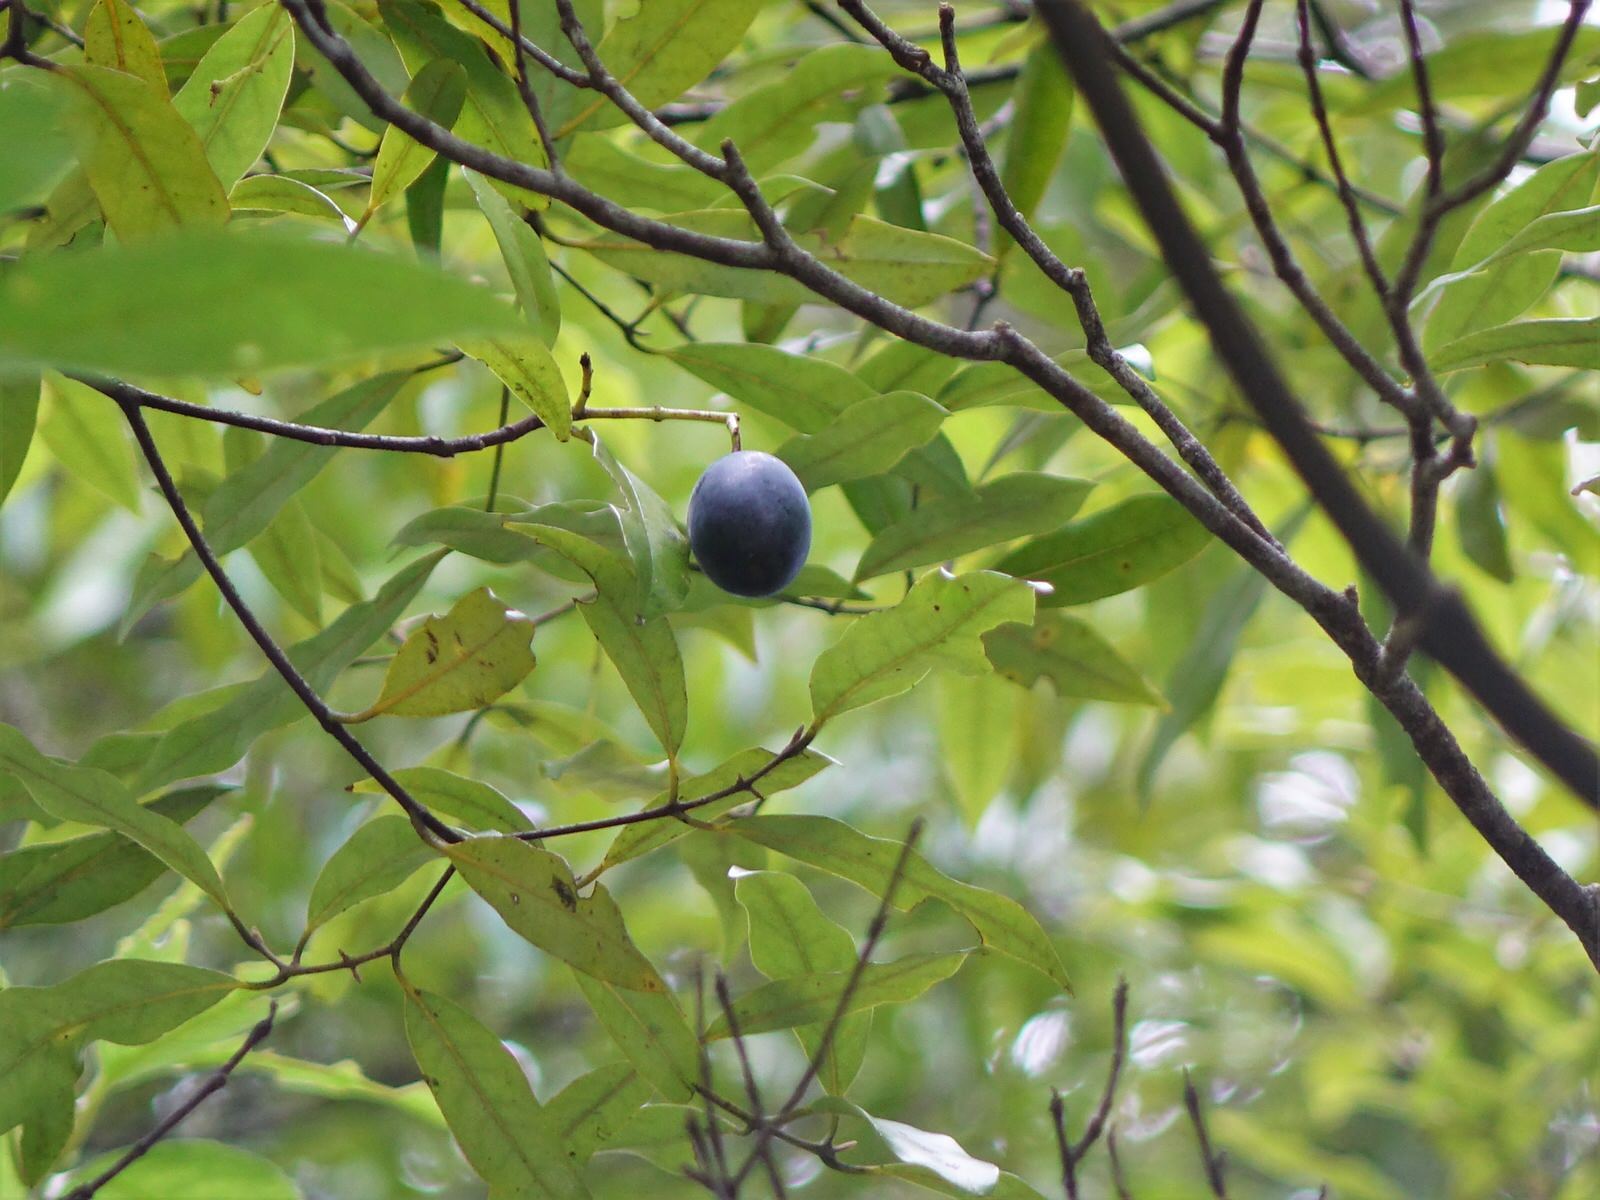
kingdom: Plantae
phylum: Tracheophyta
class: Magnoliopsida
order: Laurales
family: Lauraceae
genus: Beilschmiedia
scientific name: Beilschmiedia tawa
